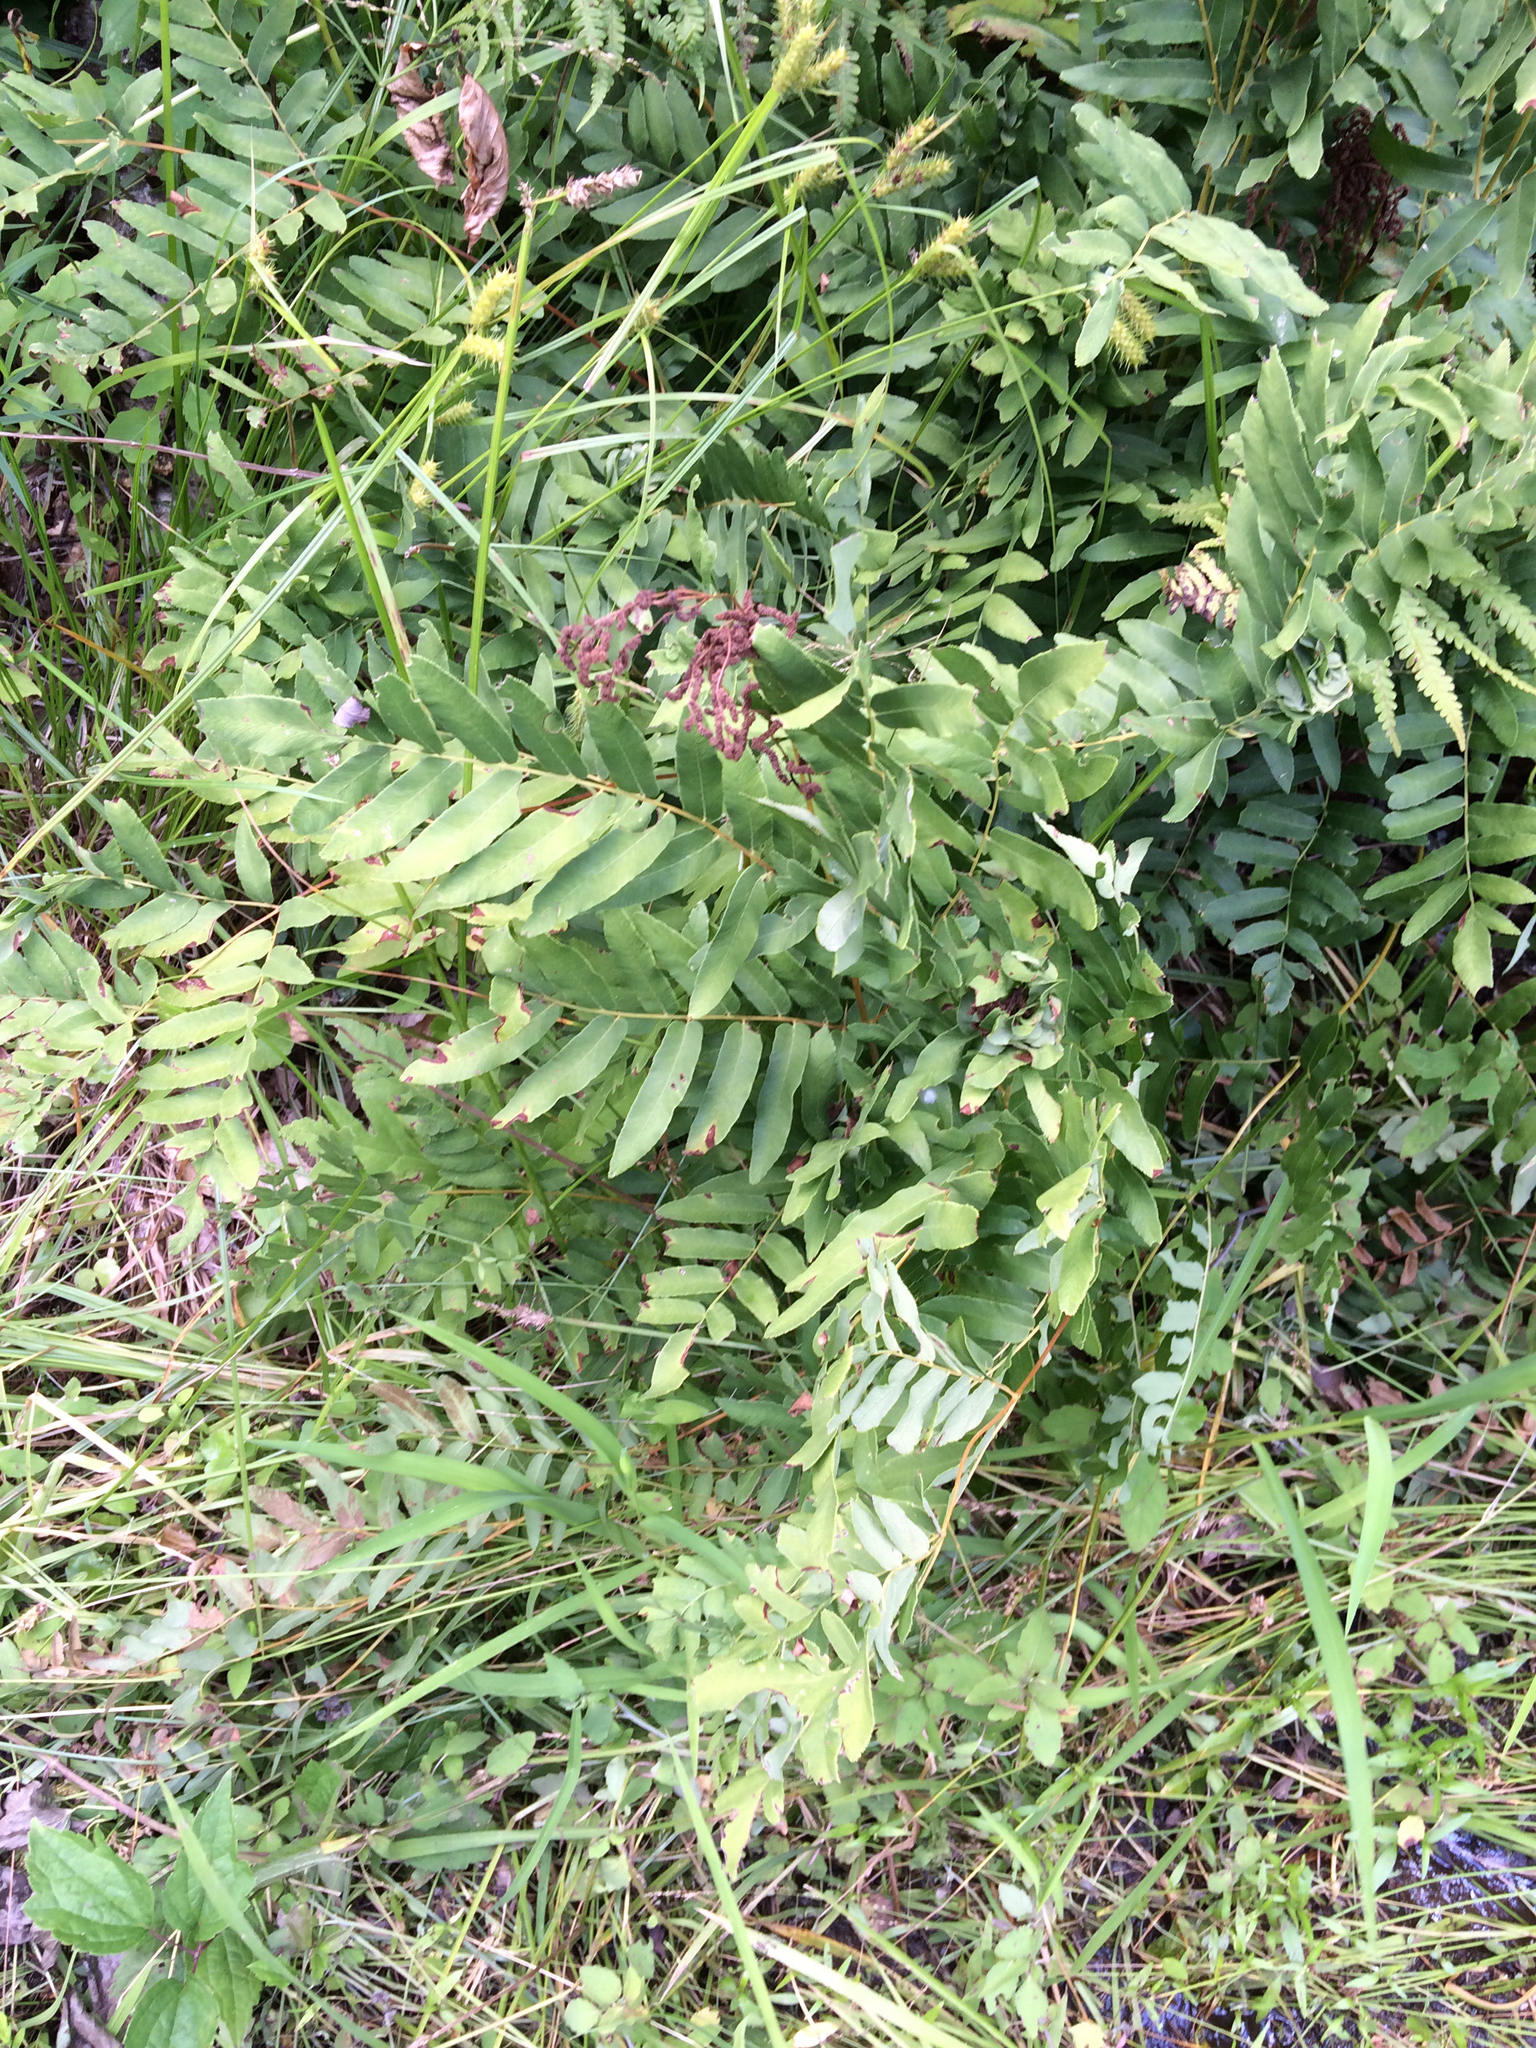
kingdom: Plantae
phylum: Tracheophyta
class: Polypodiopsida
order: Osmundales
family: Osmundaceae
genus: Osmunda
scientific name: Osmunda spectabilis
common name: American royal fern
